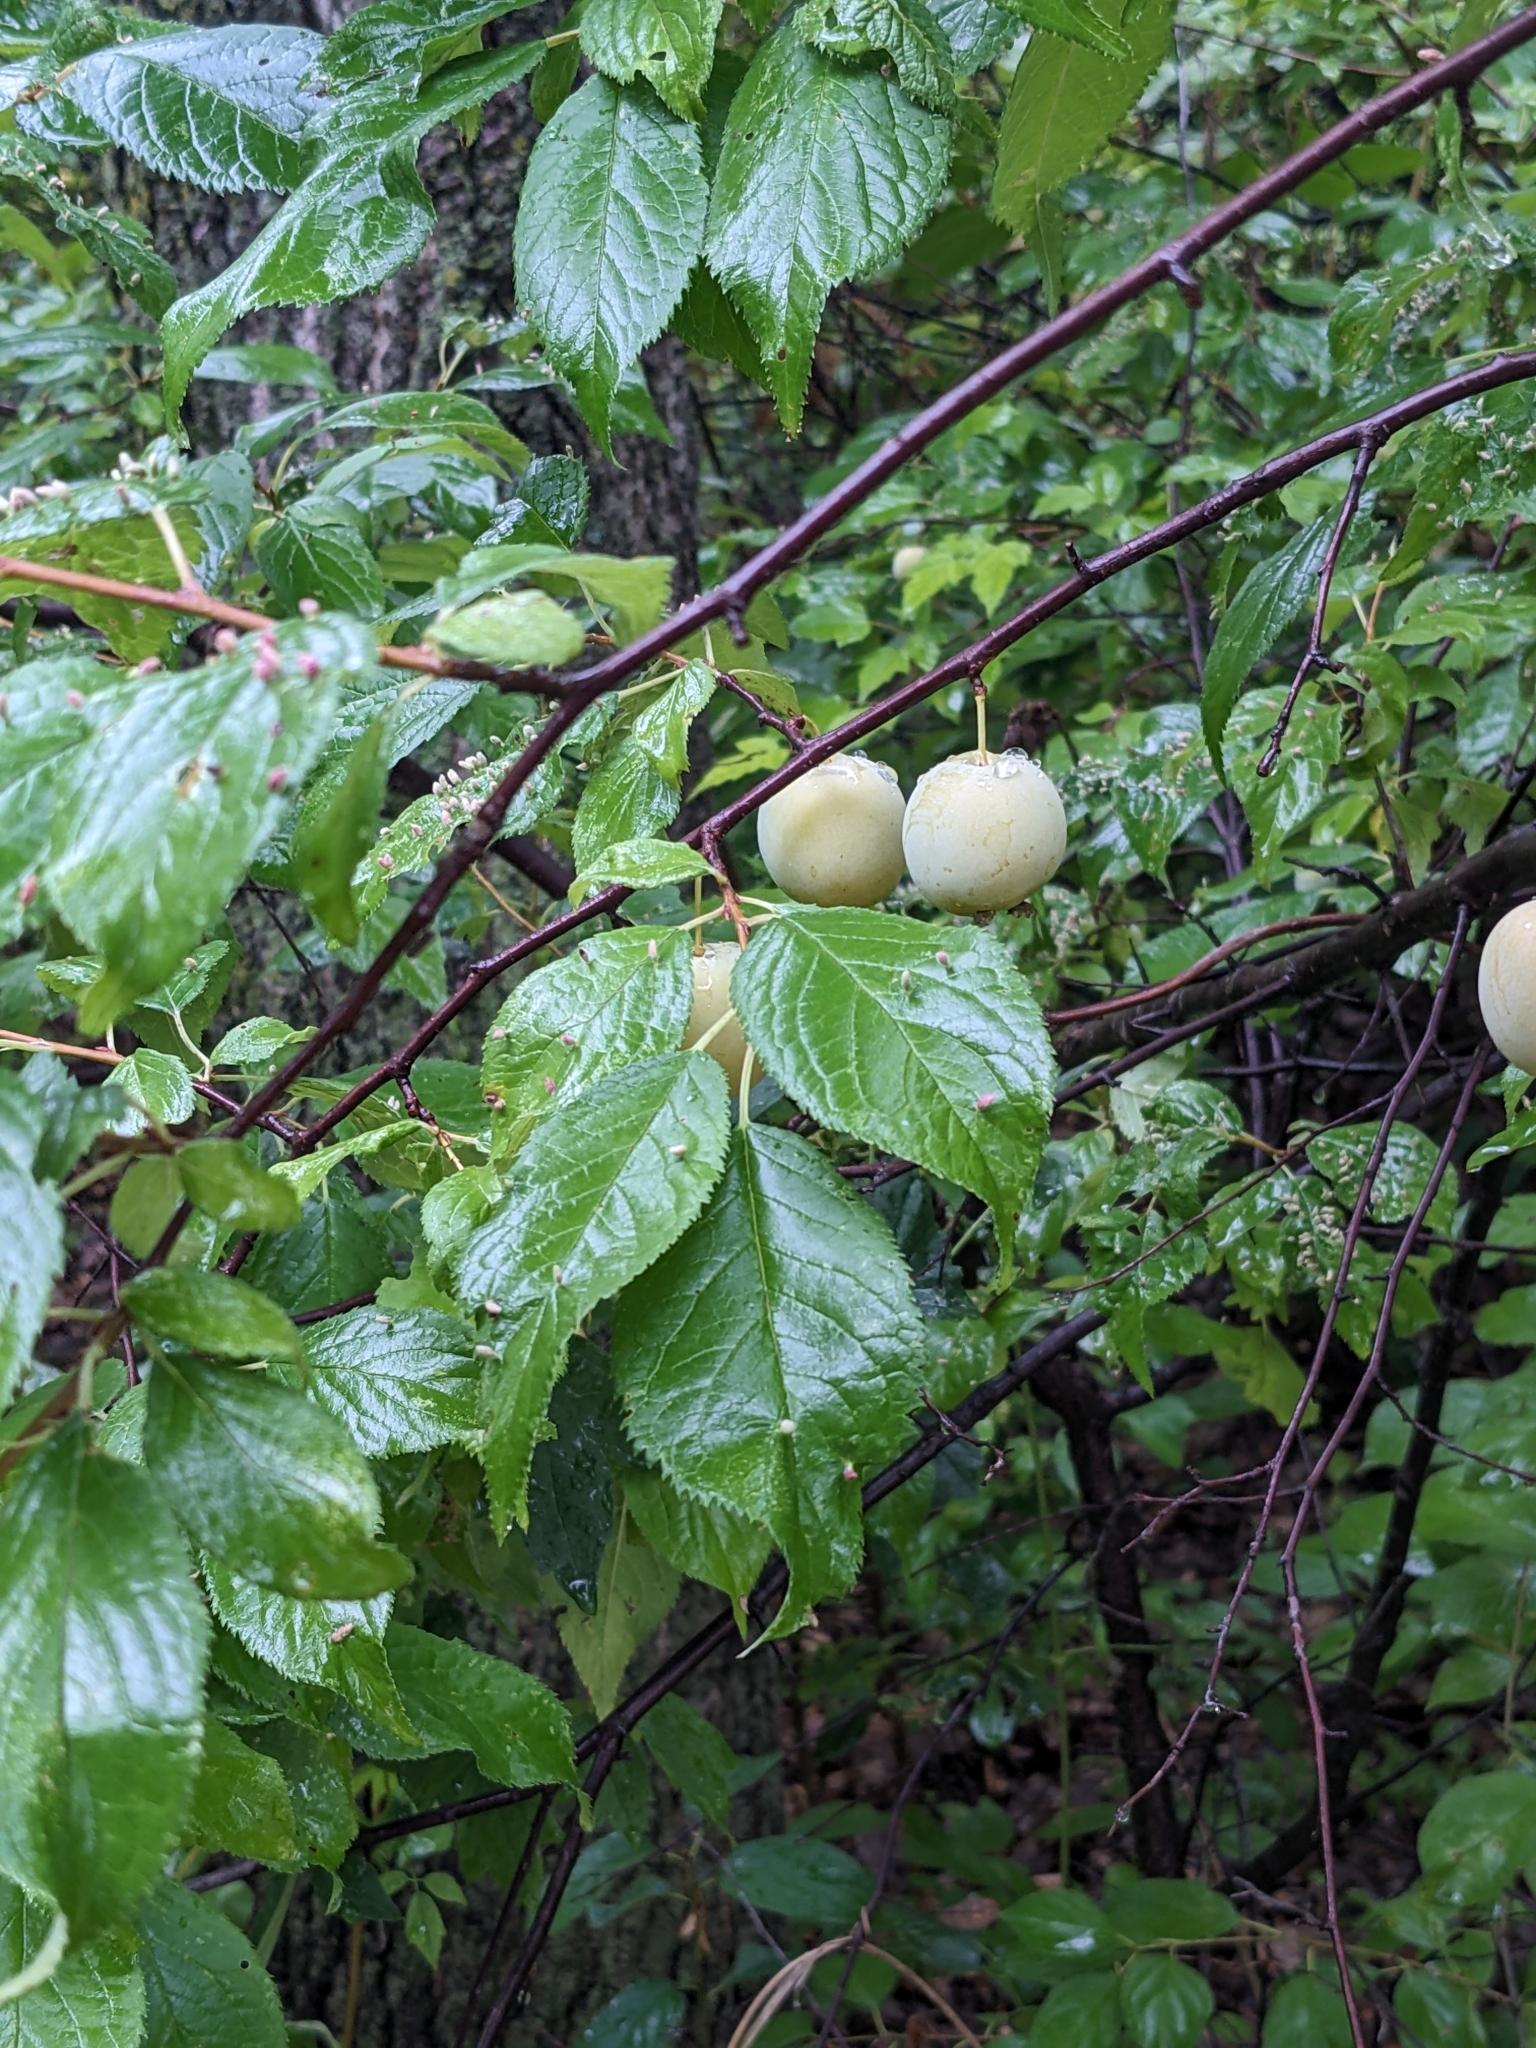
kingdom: Plantae
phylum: Tracheophyta
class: Magnoliopsida
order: Rosales
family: Rosaceae
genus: Prunus
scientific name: Prunus americana
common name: American plum
